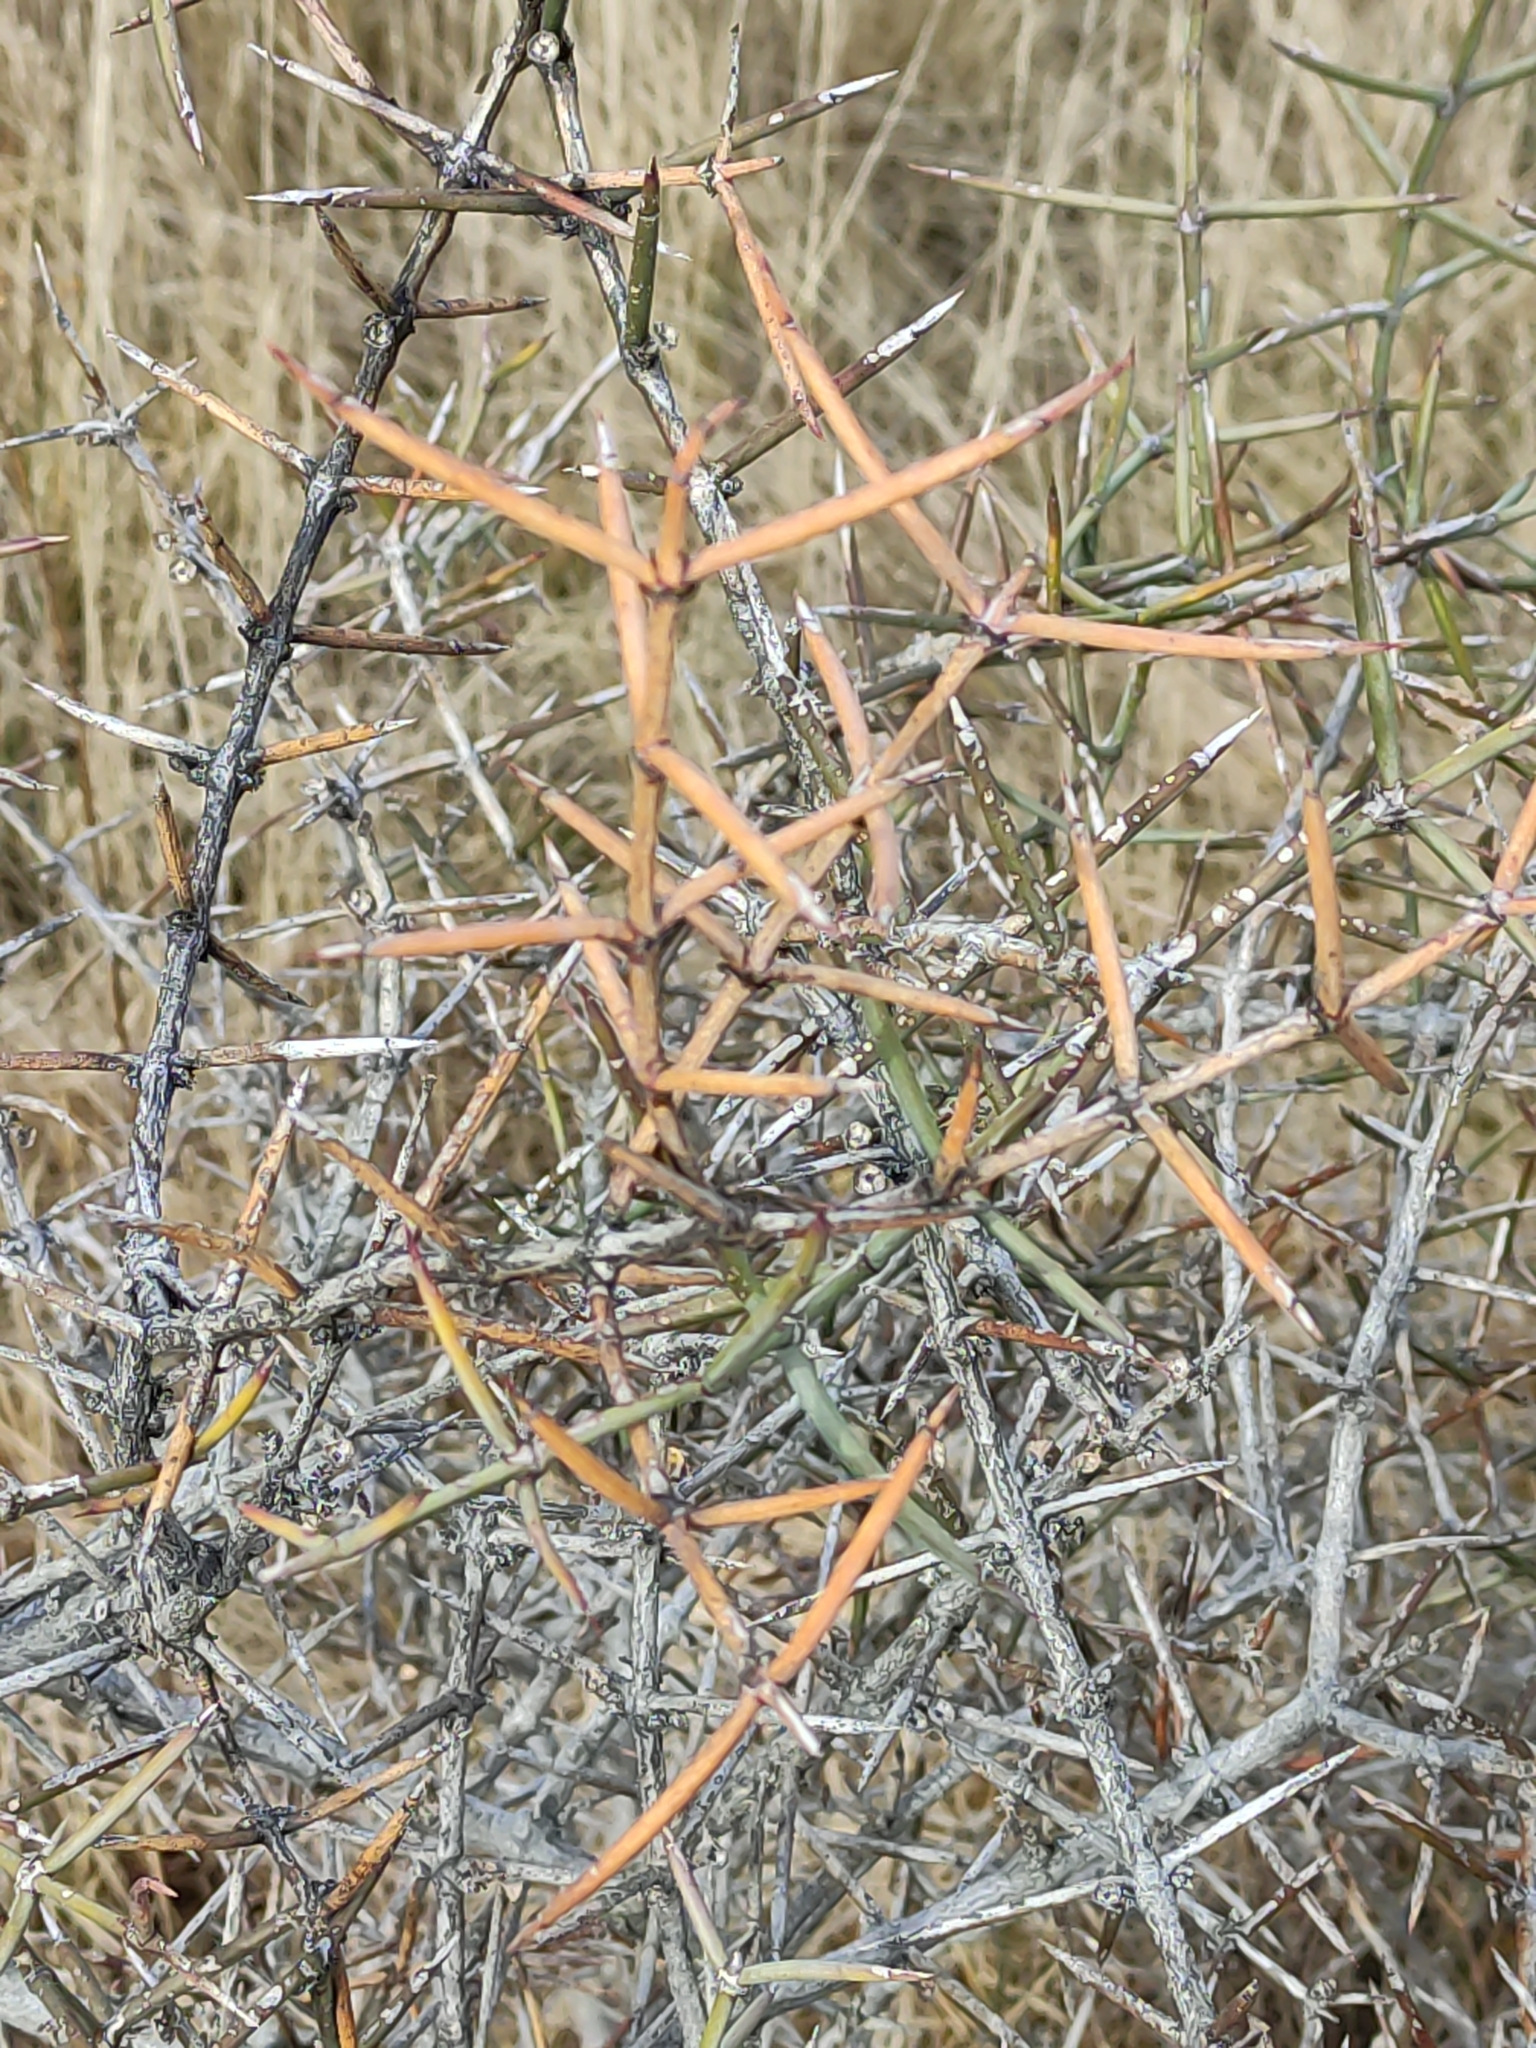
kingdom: Plantae
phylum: Tracheophyta
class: Magnoliopsida
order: Rosales
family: Rhamnaceae
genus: Discaria
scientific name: Discaria toumatou
